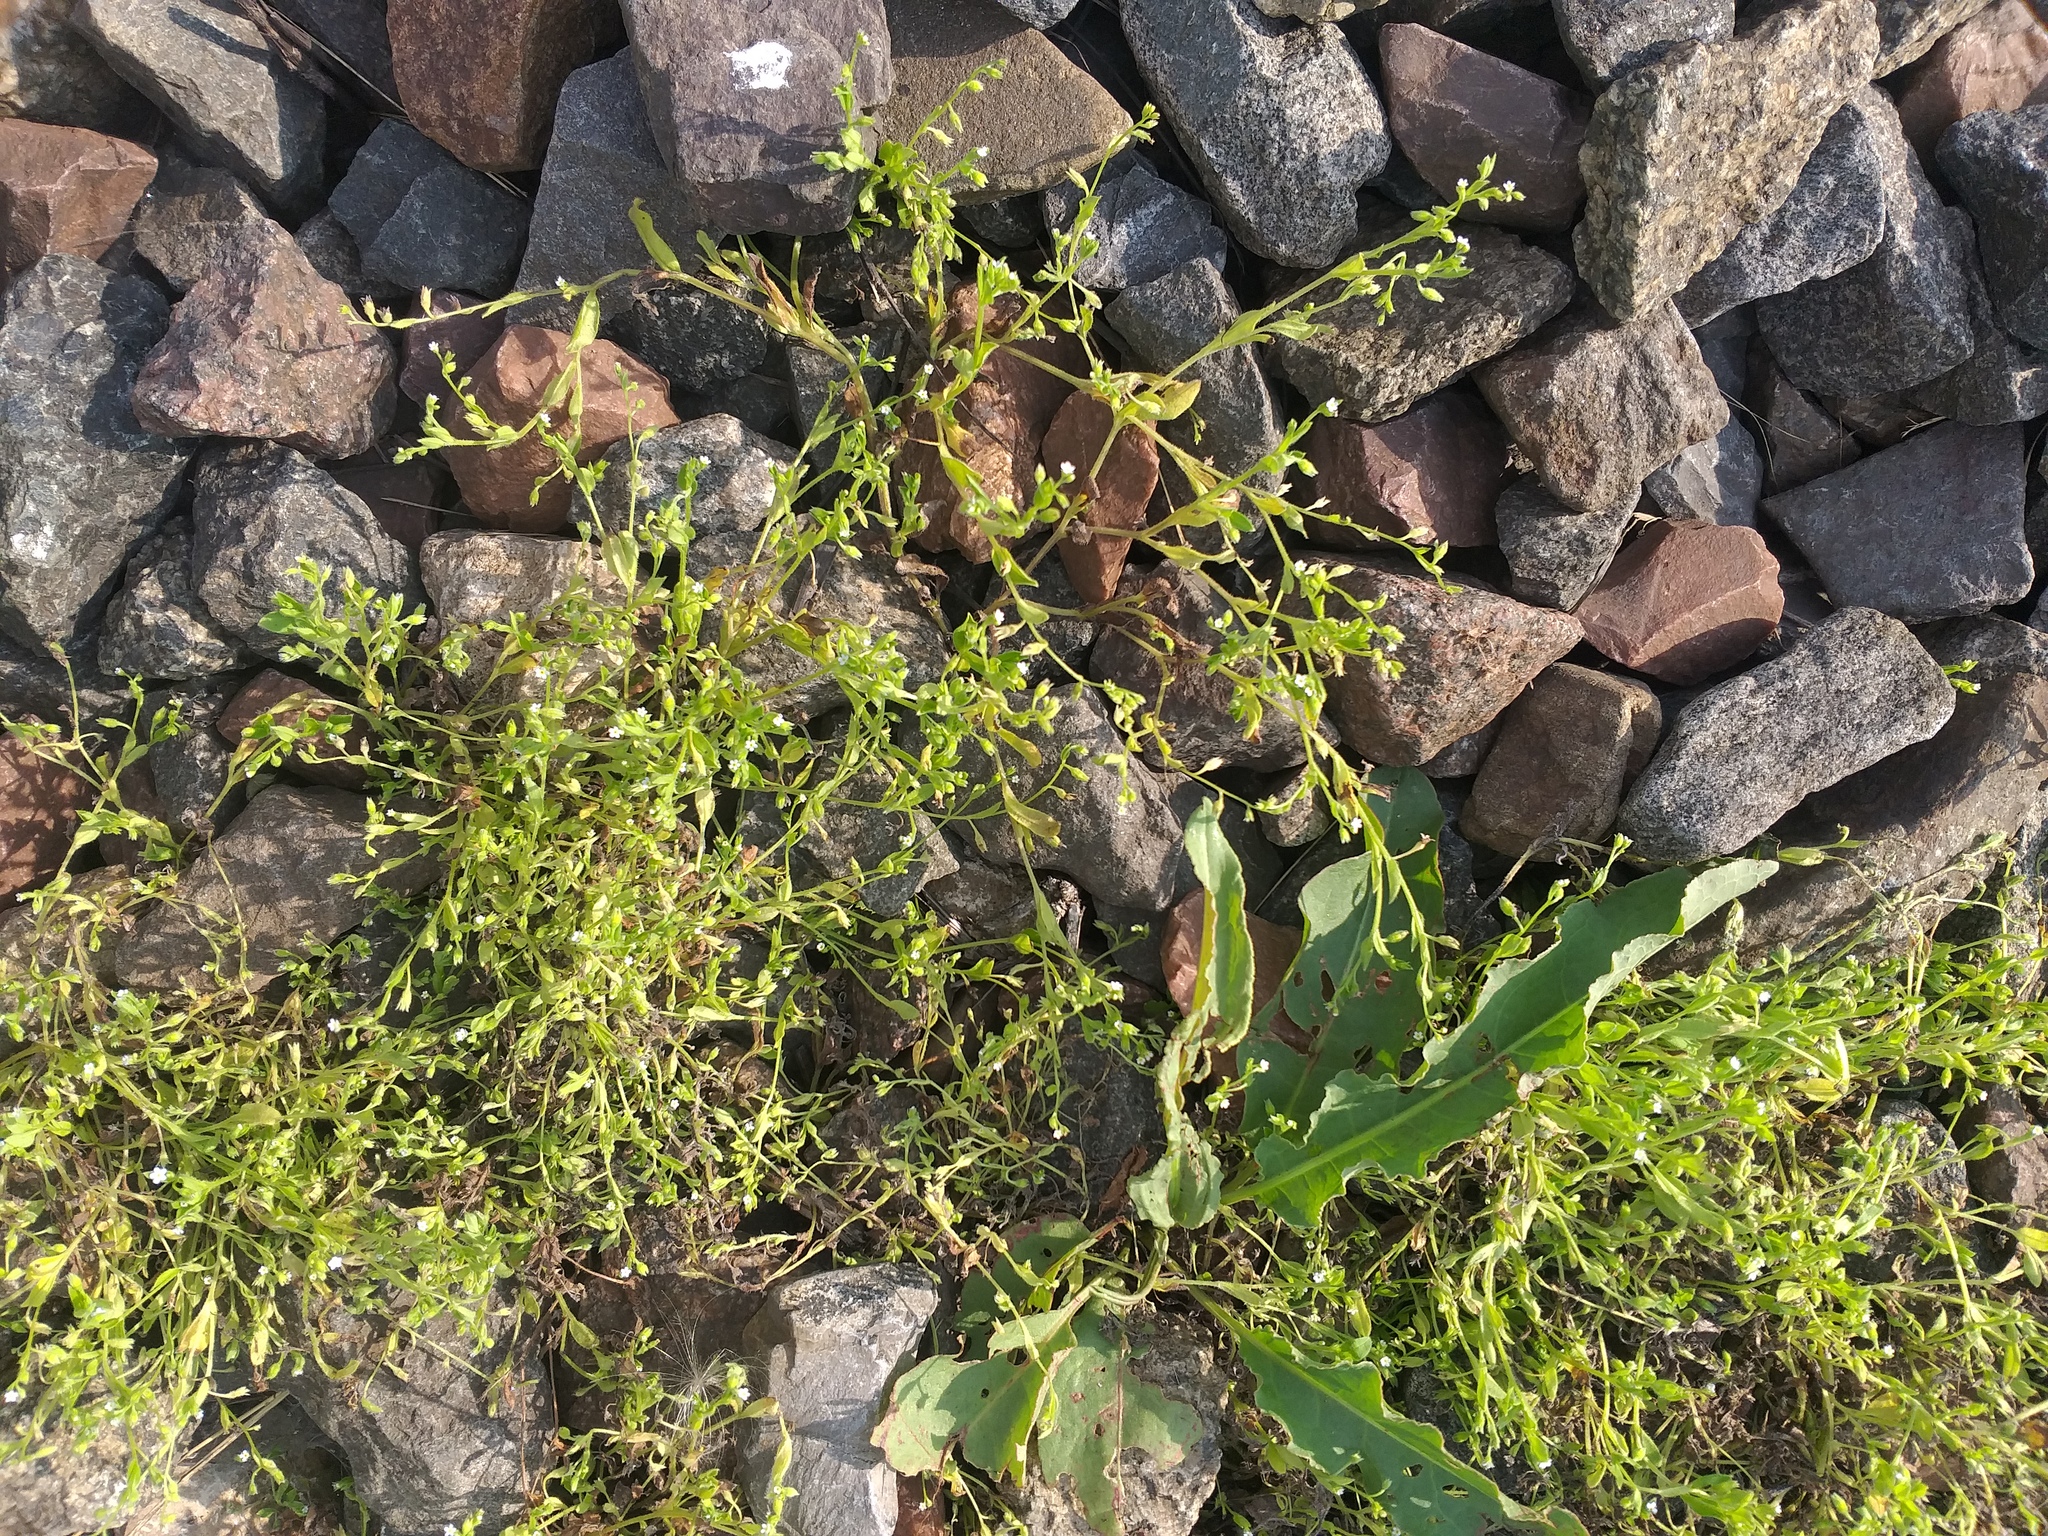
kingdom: Plantae
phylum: Tracheophyta
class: Magnoliopsida
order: Boraginales
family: Boraginaceae
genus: Myosotis
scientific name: Myosotis sparsiflora
